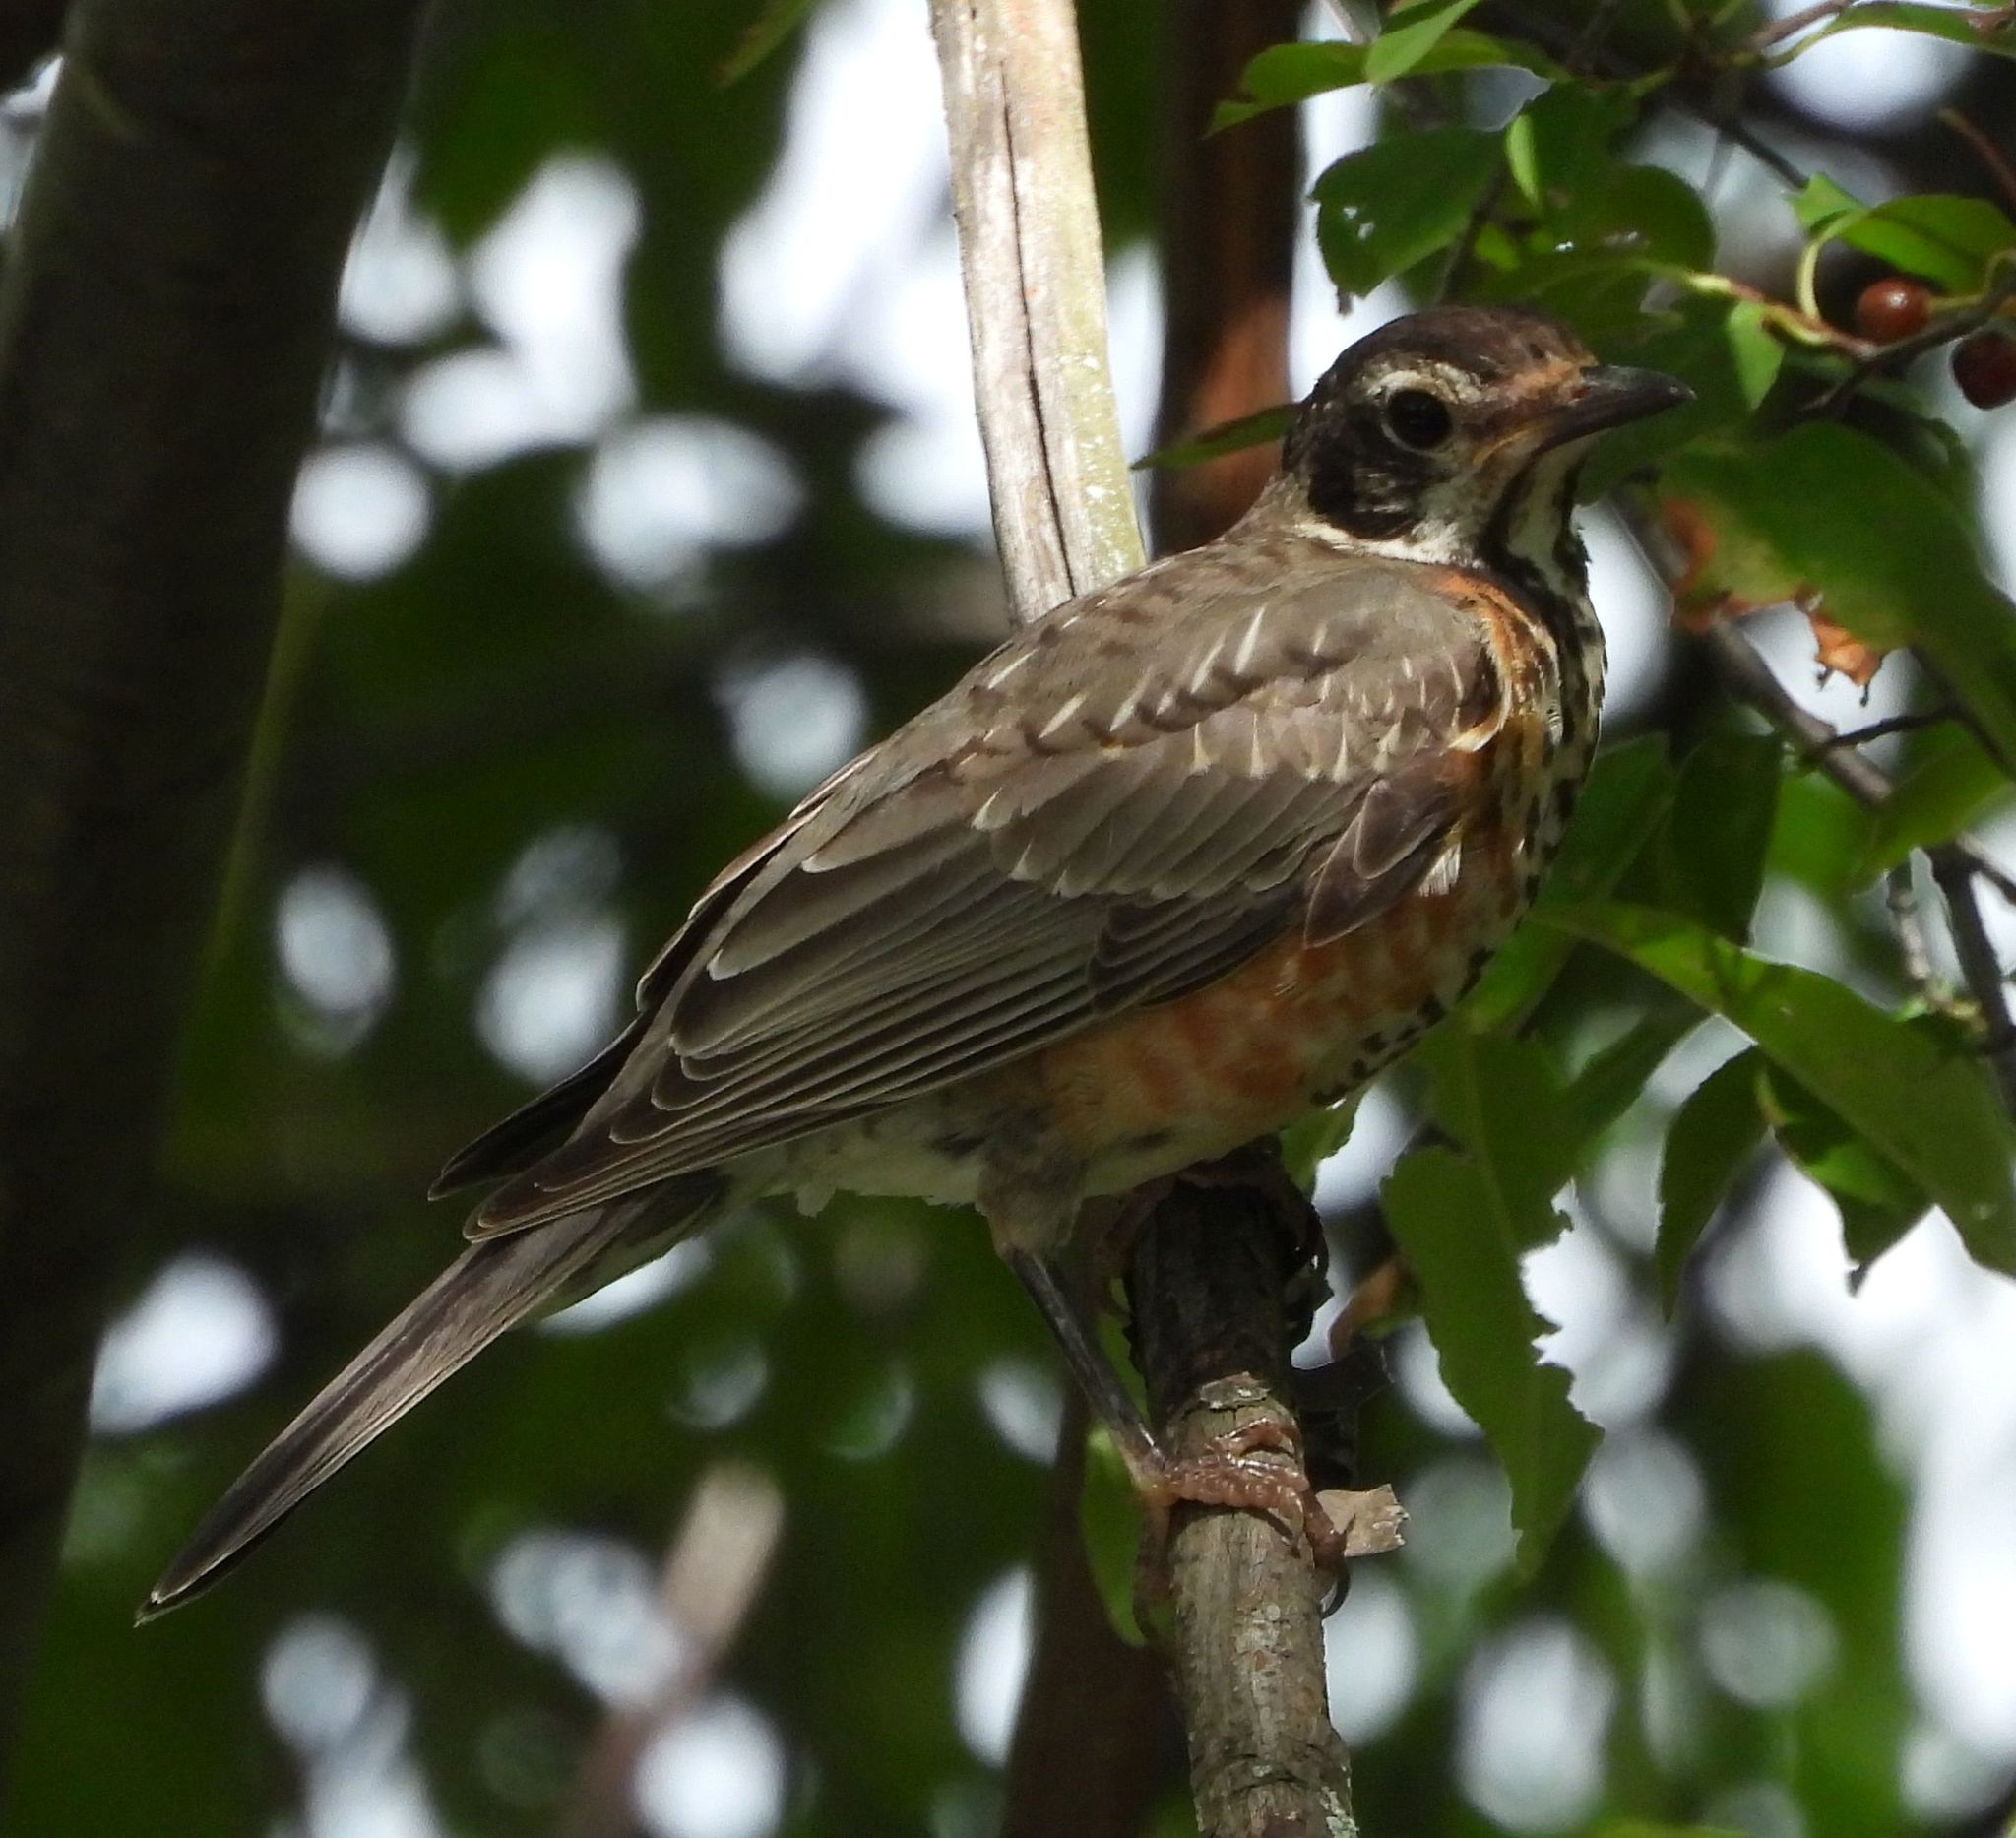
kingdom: Animalia
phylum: Chordata
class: Aves
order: Passeriformes
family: Turdidae
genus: Turdus
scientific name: Turdus migratorius
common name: American robin
